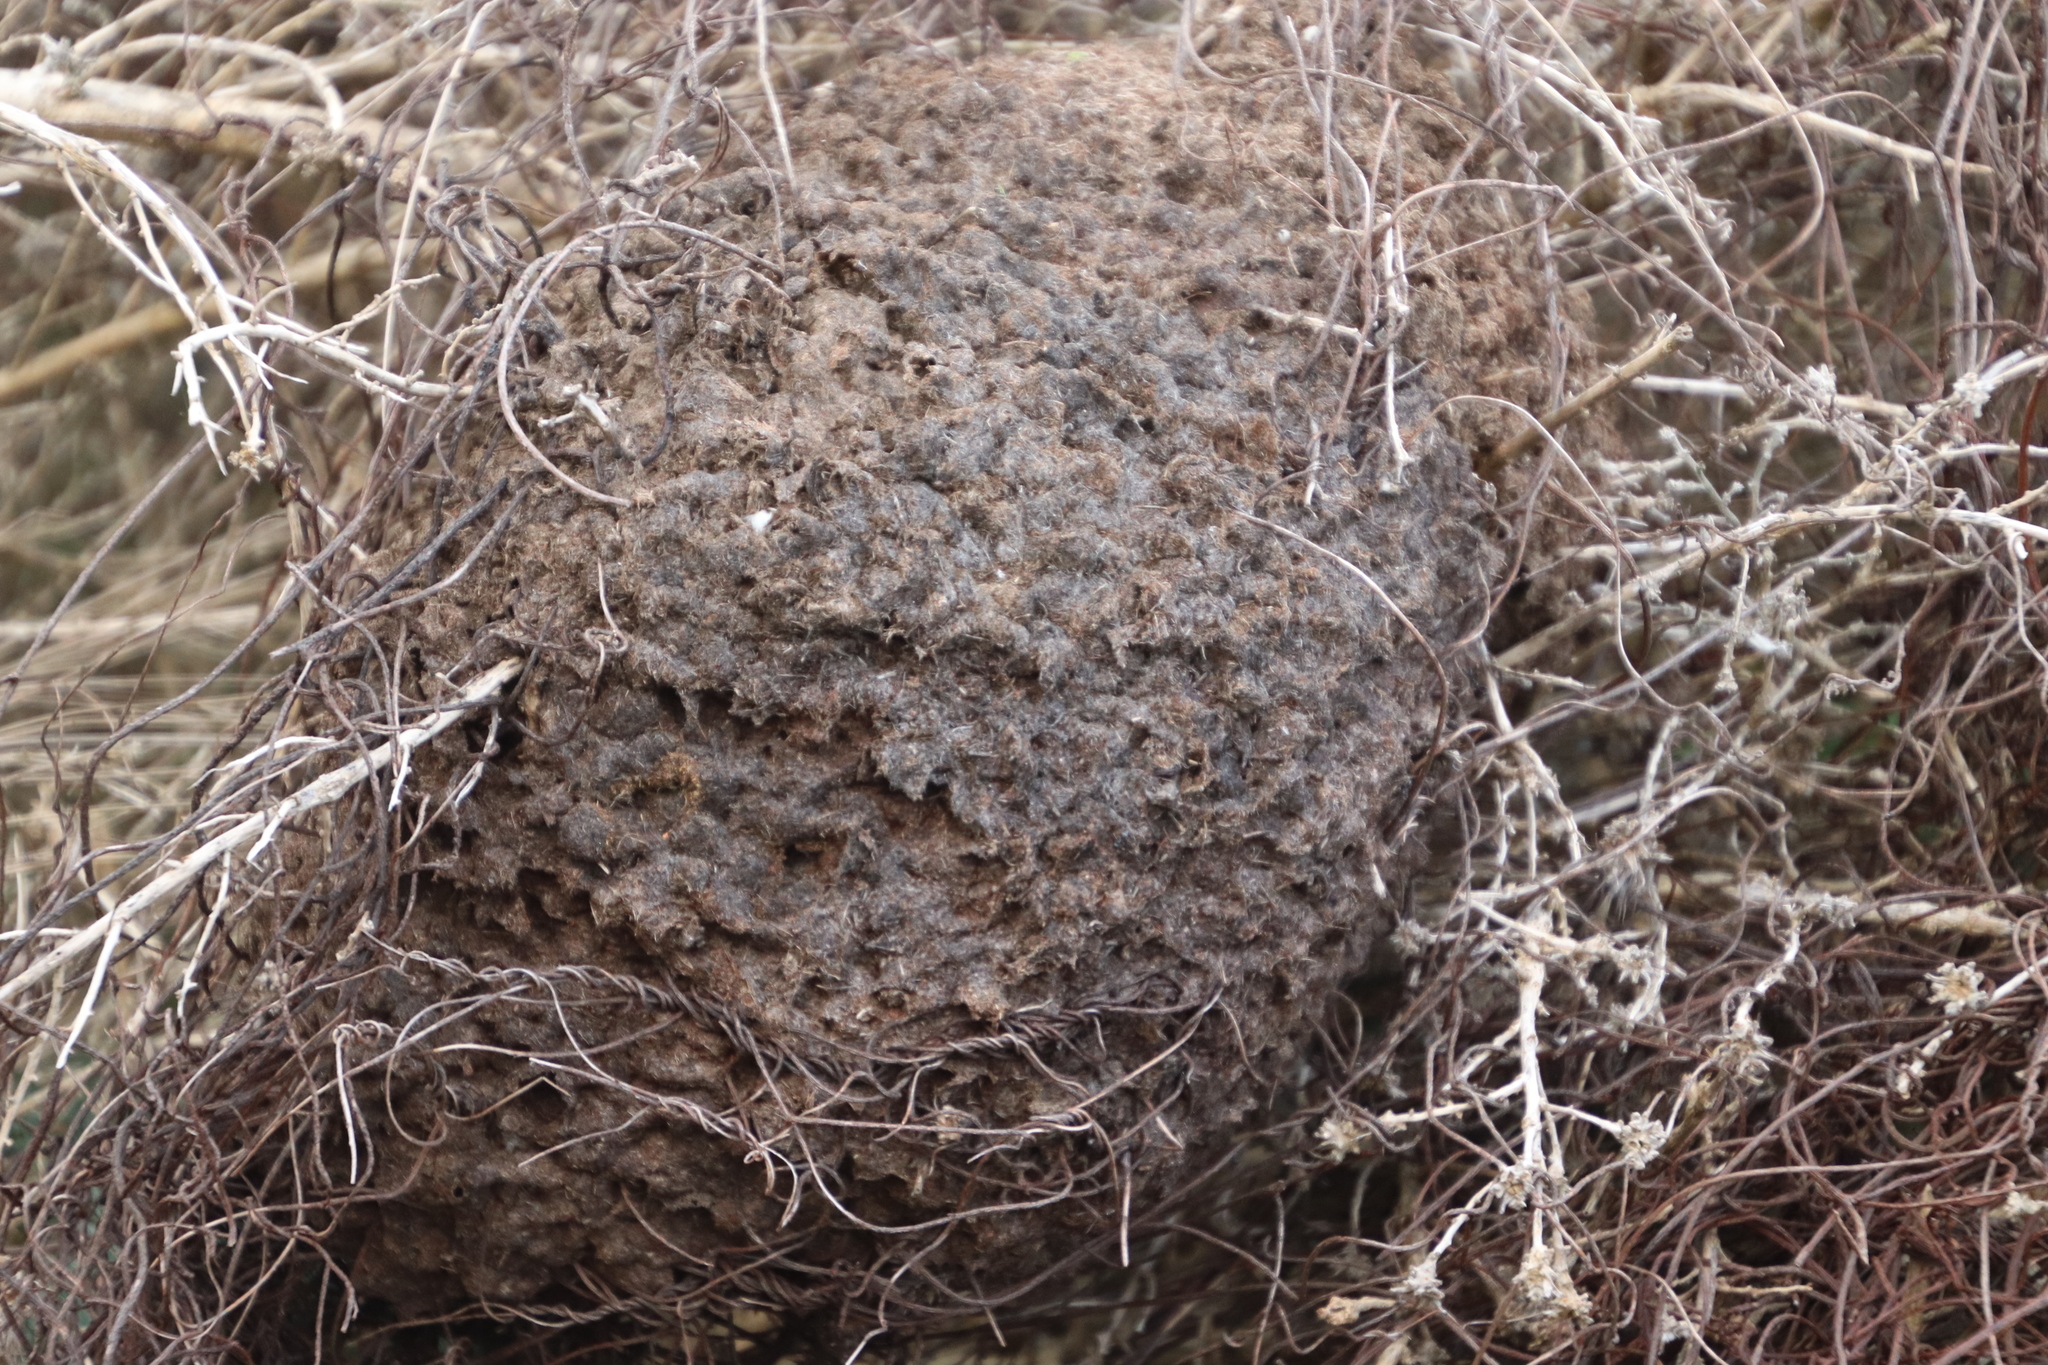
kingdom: Animalia
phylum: Arthropoda
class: Insecta
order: Hymenoptera
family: Formicidae
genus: Crematogaster
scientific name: Crematogaster peringueyi
